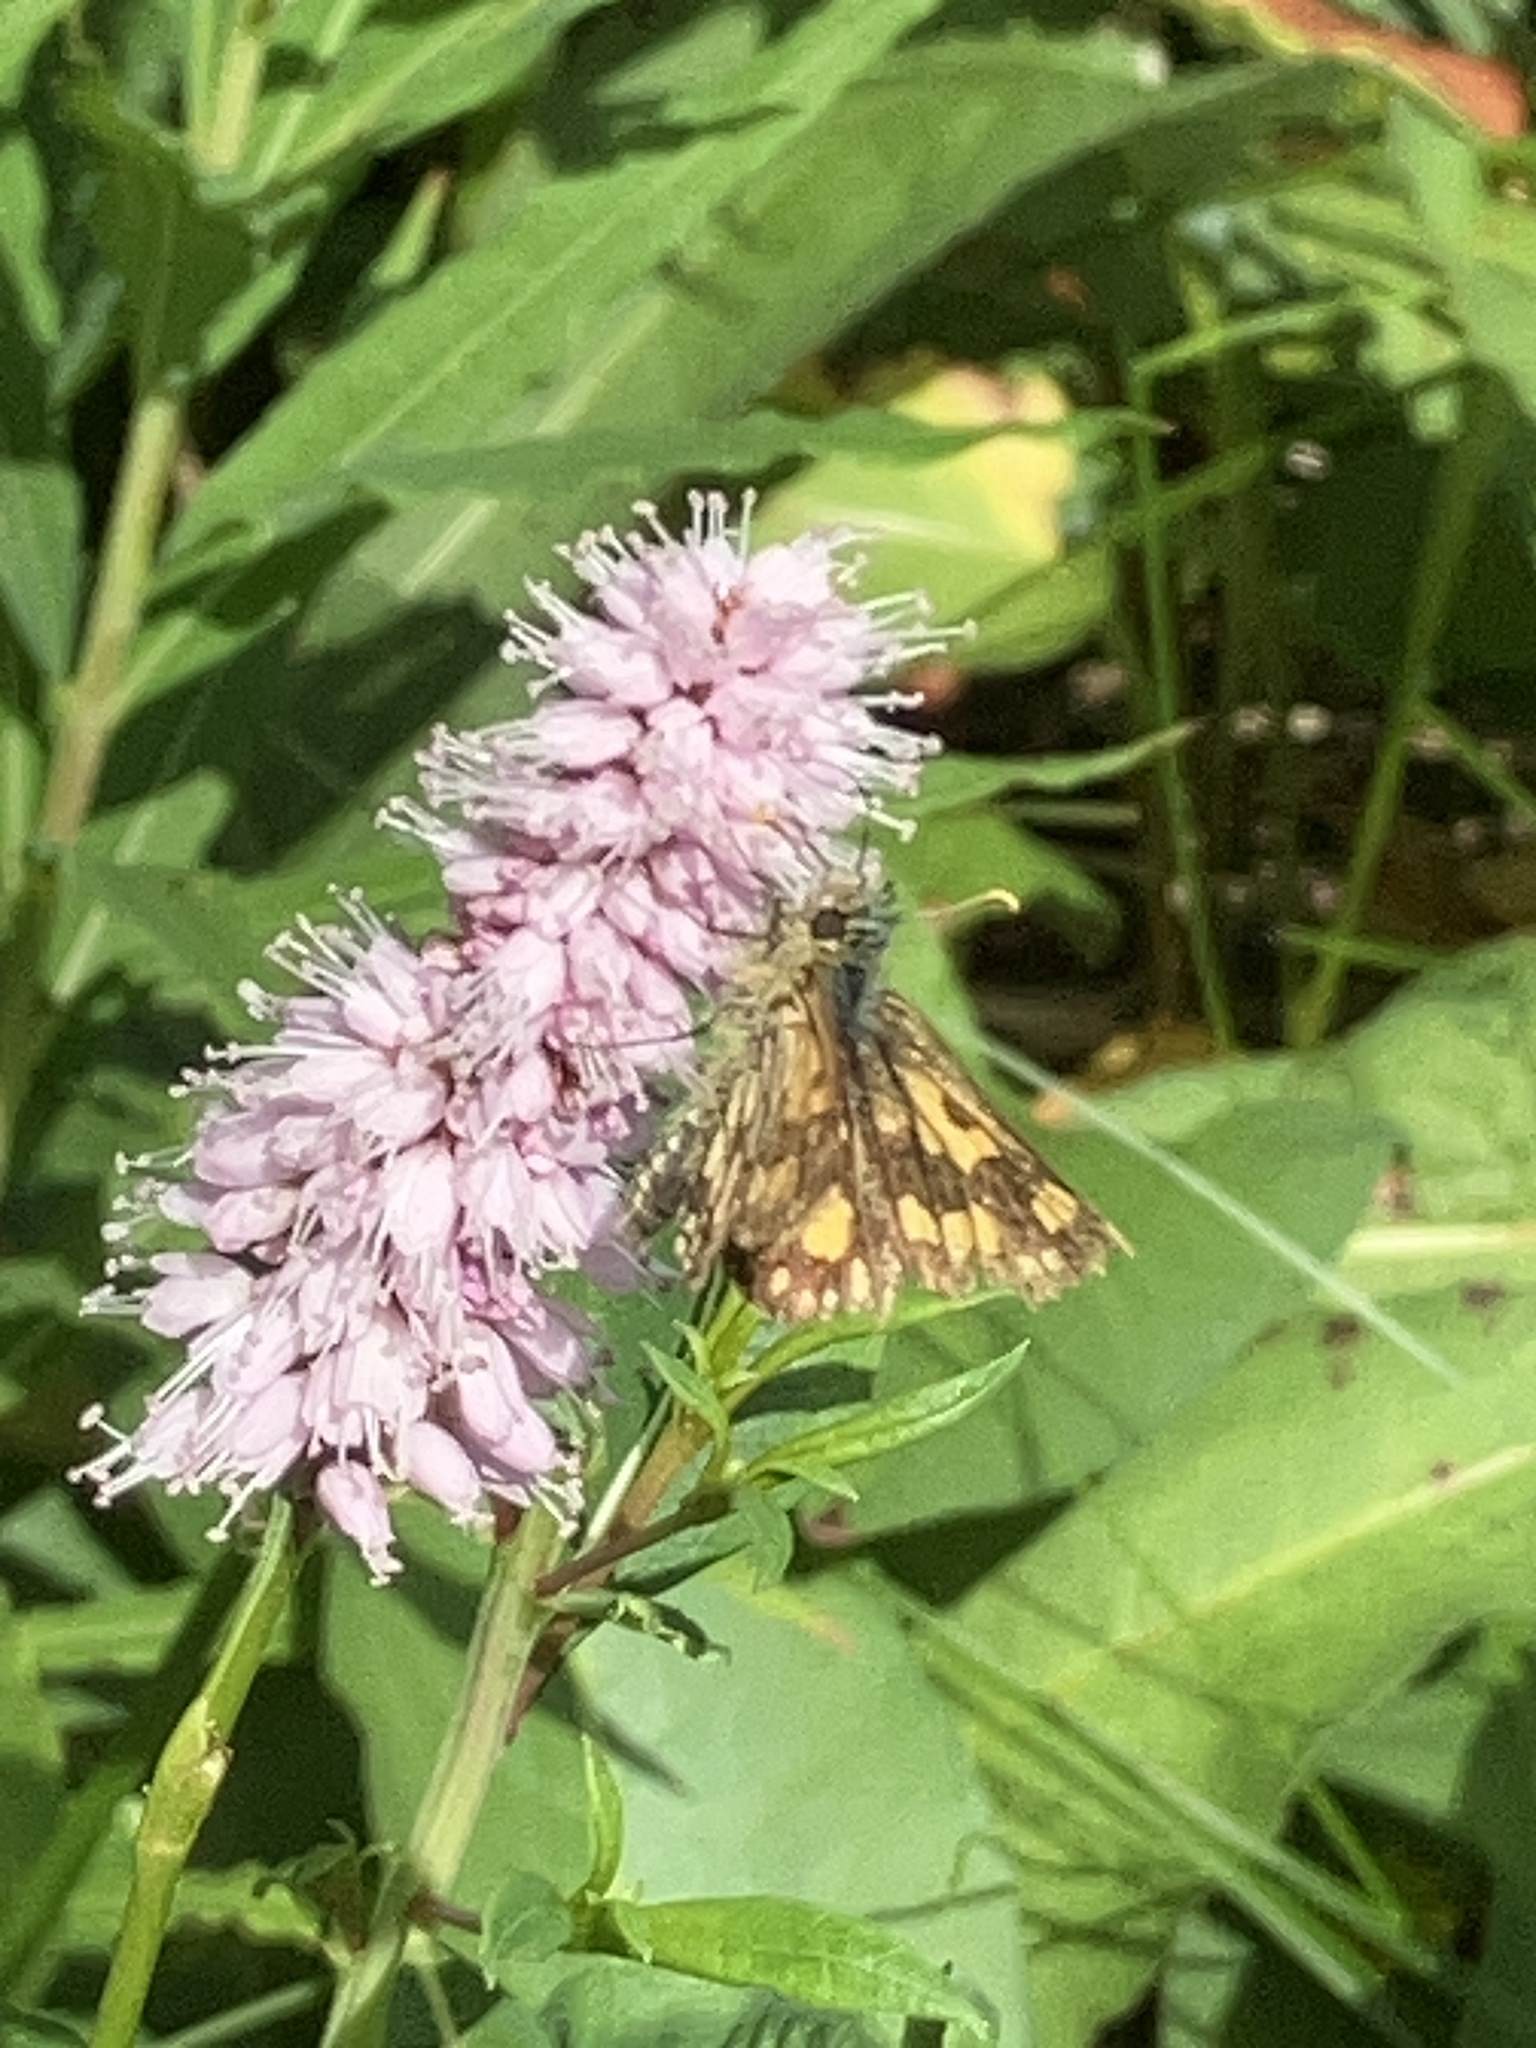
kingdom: Plantae
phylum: Tracheophyta
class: Magnoliopsida
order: Caryophyllales
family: Polygonaceae
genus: Bistorta
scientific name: Bistorta officinalis
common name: Common bistort
